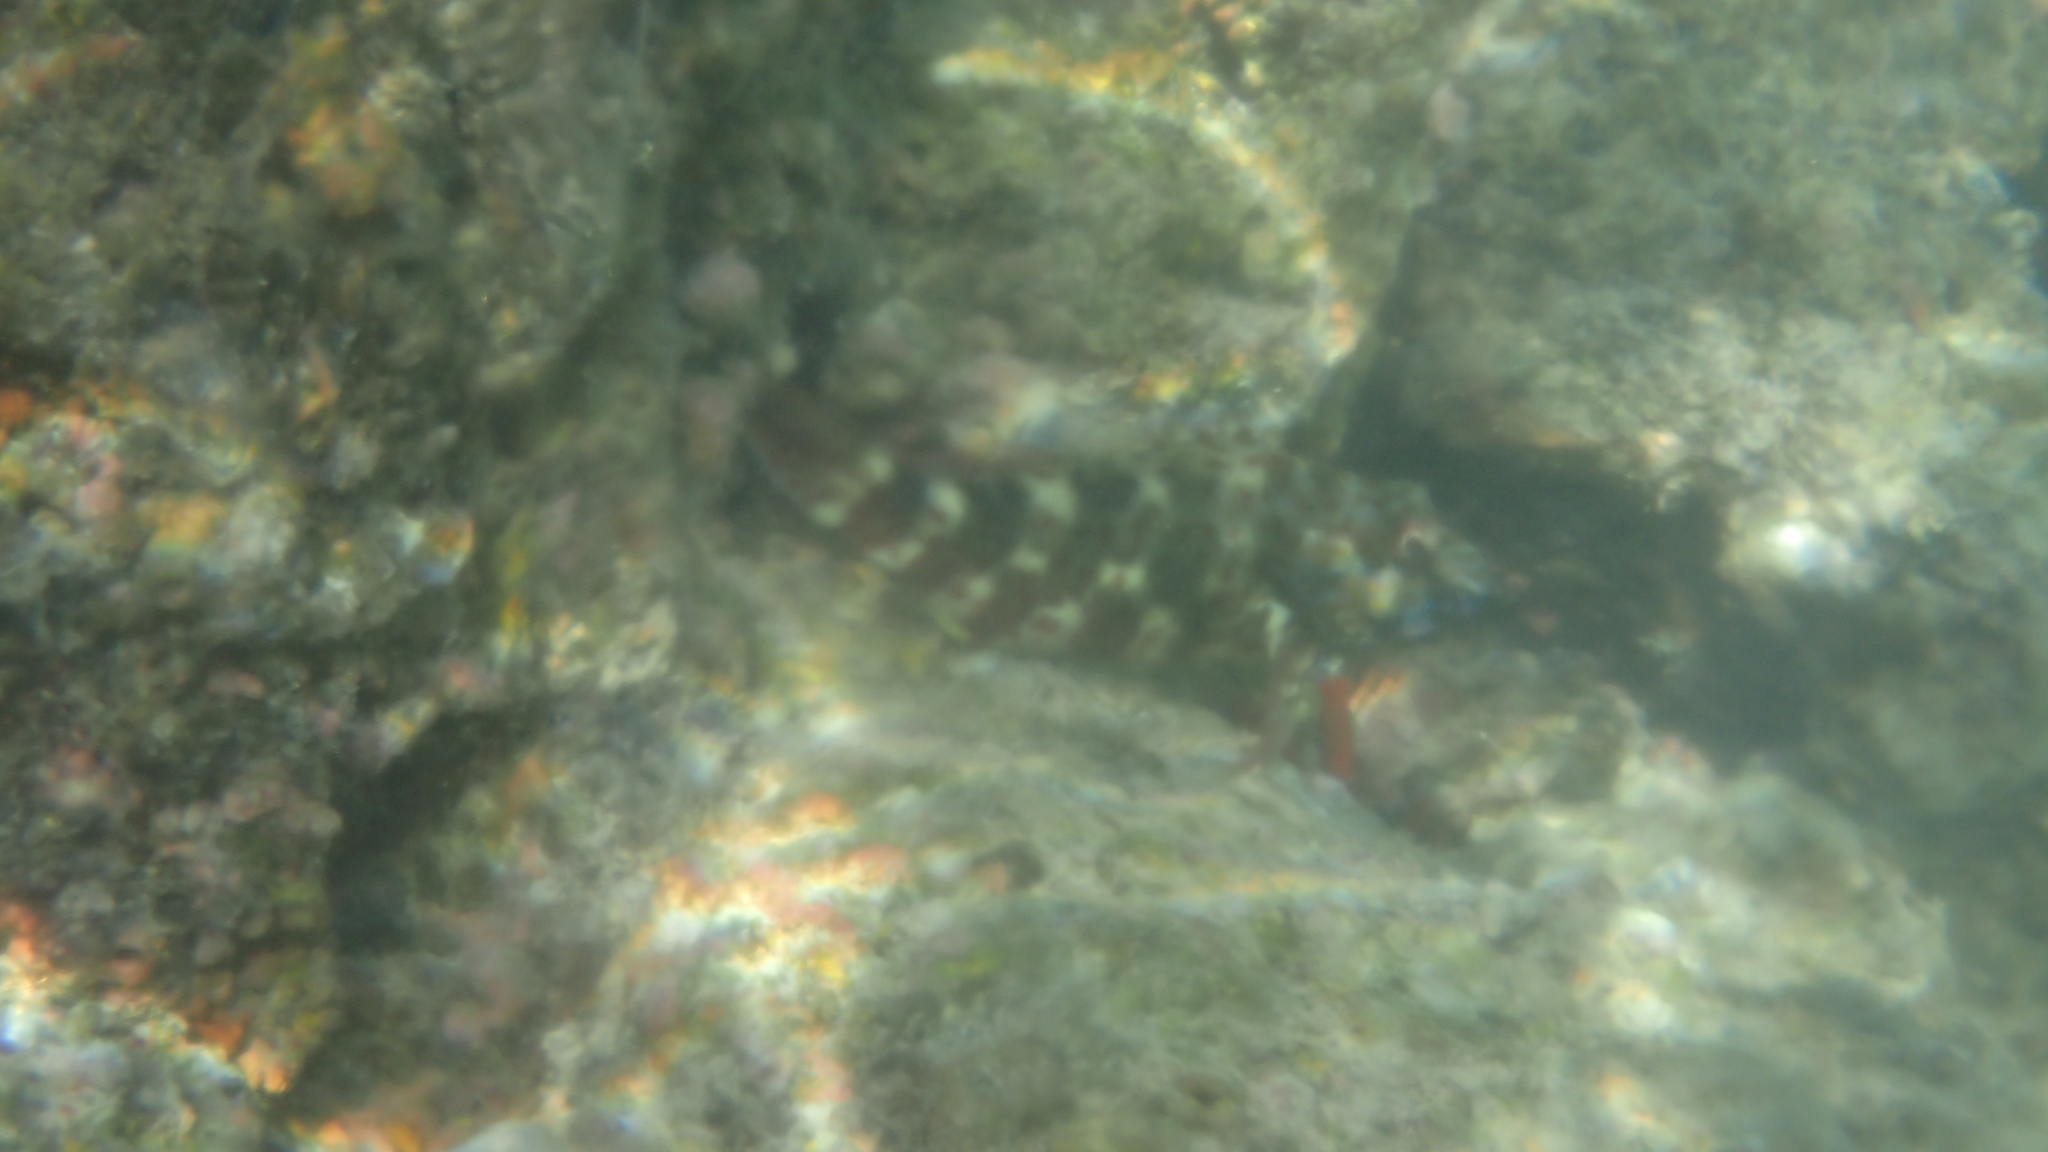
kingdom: Animalia
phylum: Chordata
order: Perciformes
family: Cirrhitidae
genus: Cirrhitus
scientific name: Cirrhitus pinnulatus
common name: Stocky hawkfish
